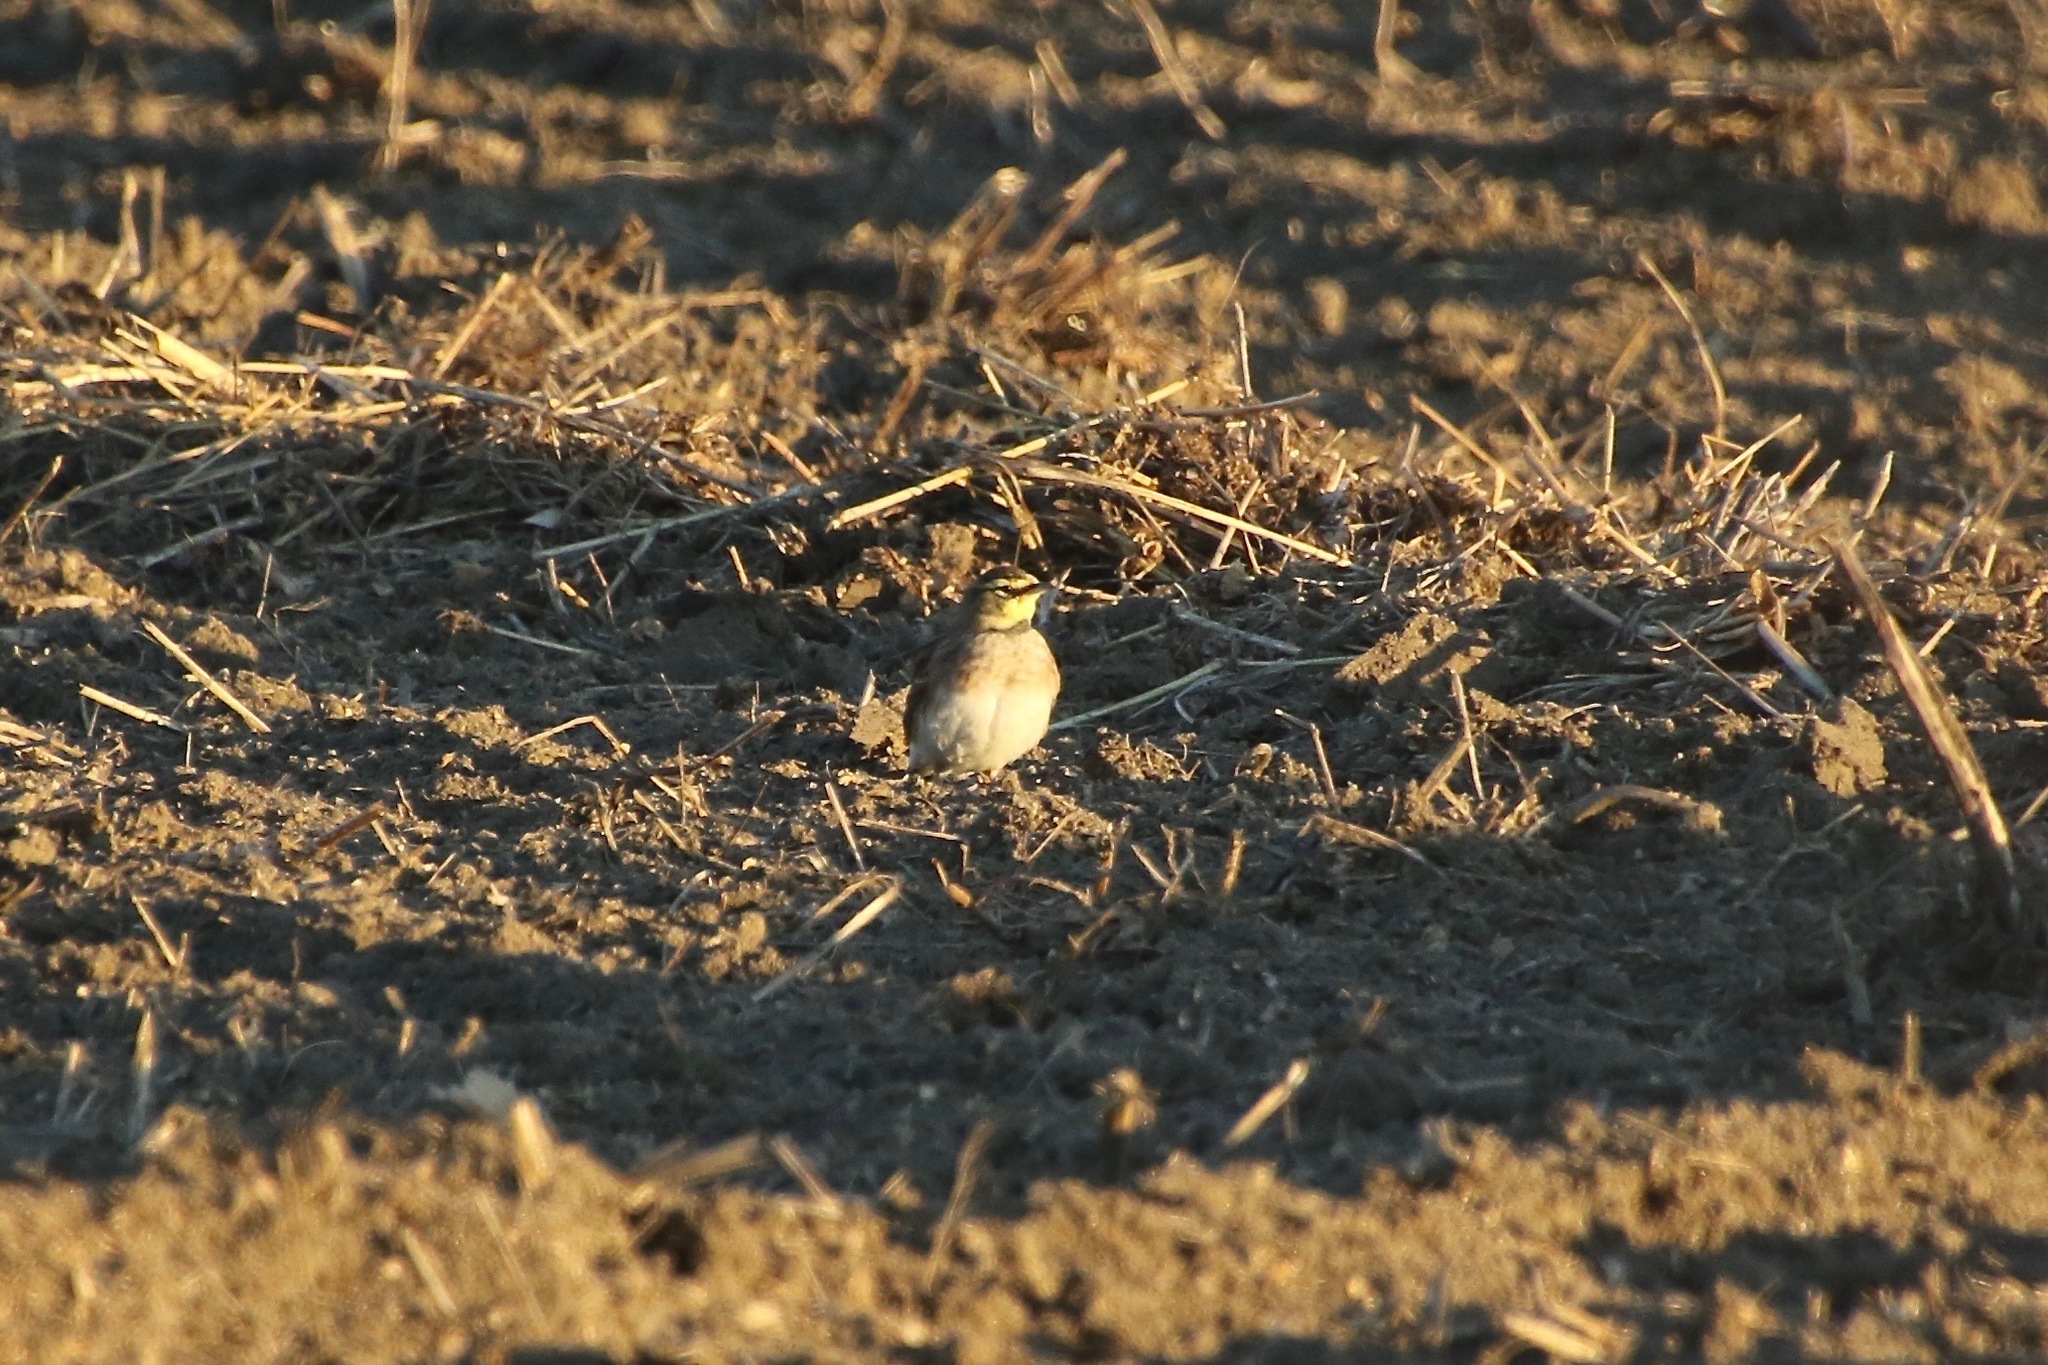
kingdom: Animalia
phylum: Chordata
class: Aves
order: Passeriformes
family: Alaudidae
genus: Eremophila
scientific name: Eremophila alpestris
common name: Horned lark
